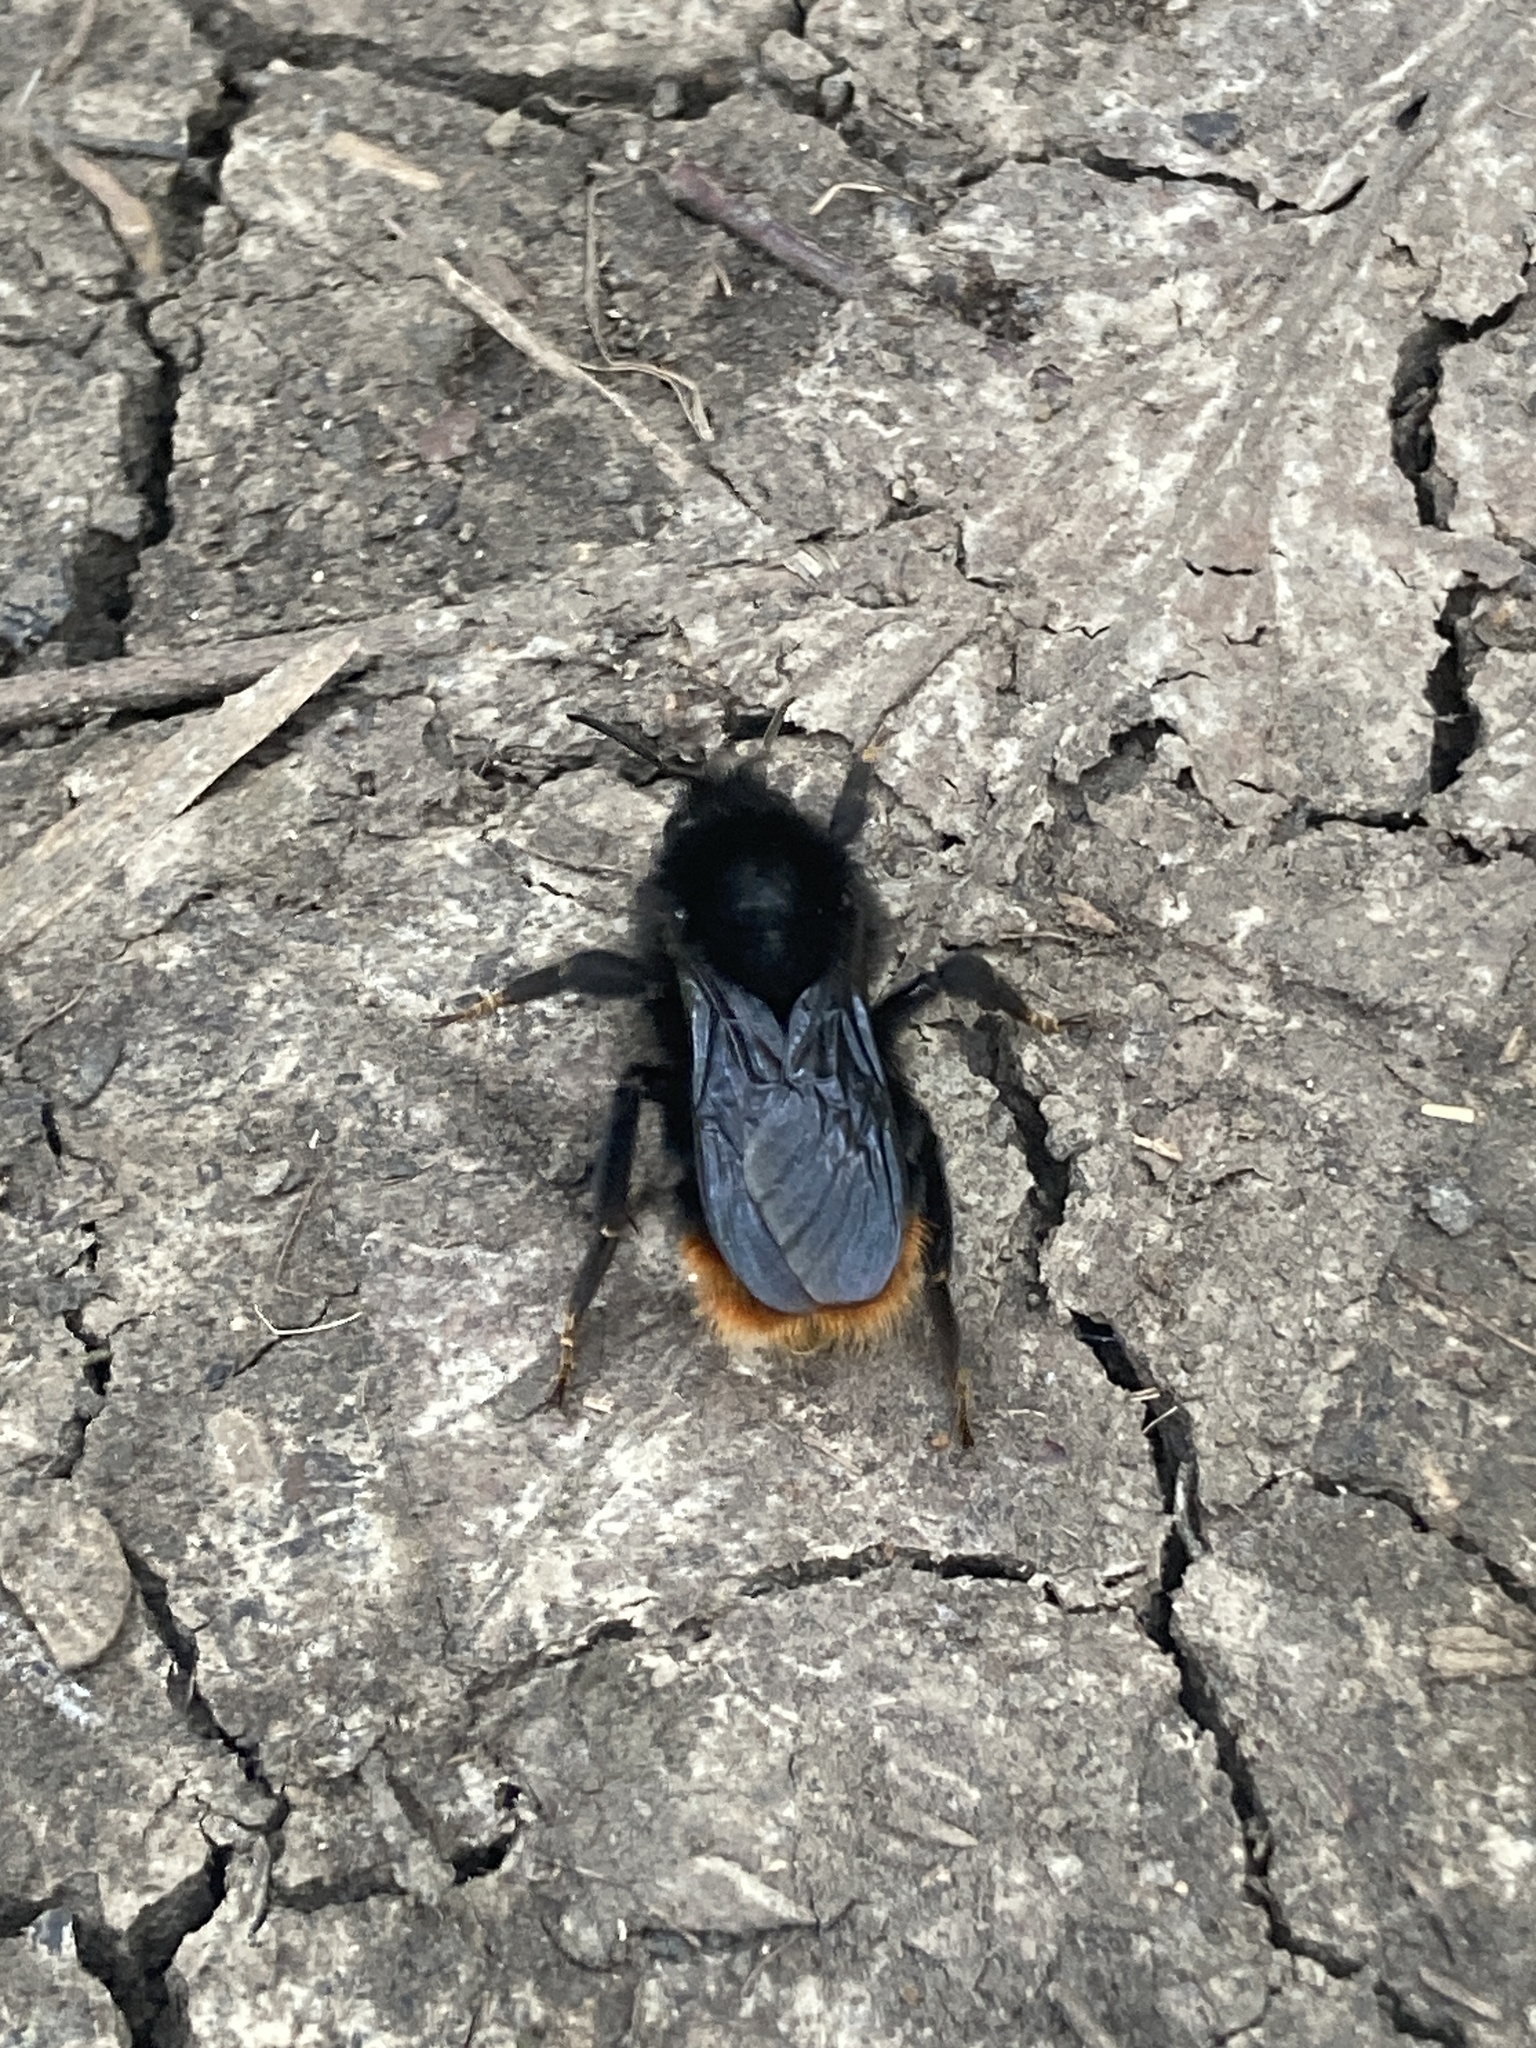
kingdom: Animalia
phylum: Arthropoda
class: Insecta
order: Hymenoptera
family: Apidae
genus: Bombus
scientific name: Bombus rupestris
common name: Hill cuckoo-bee
